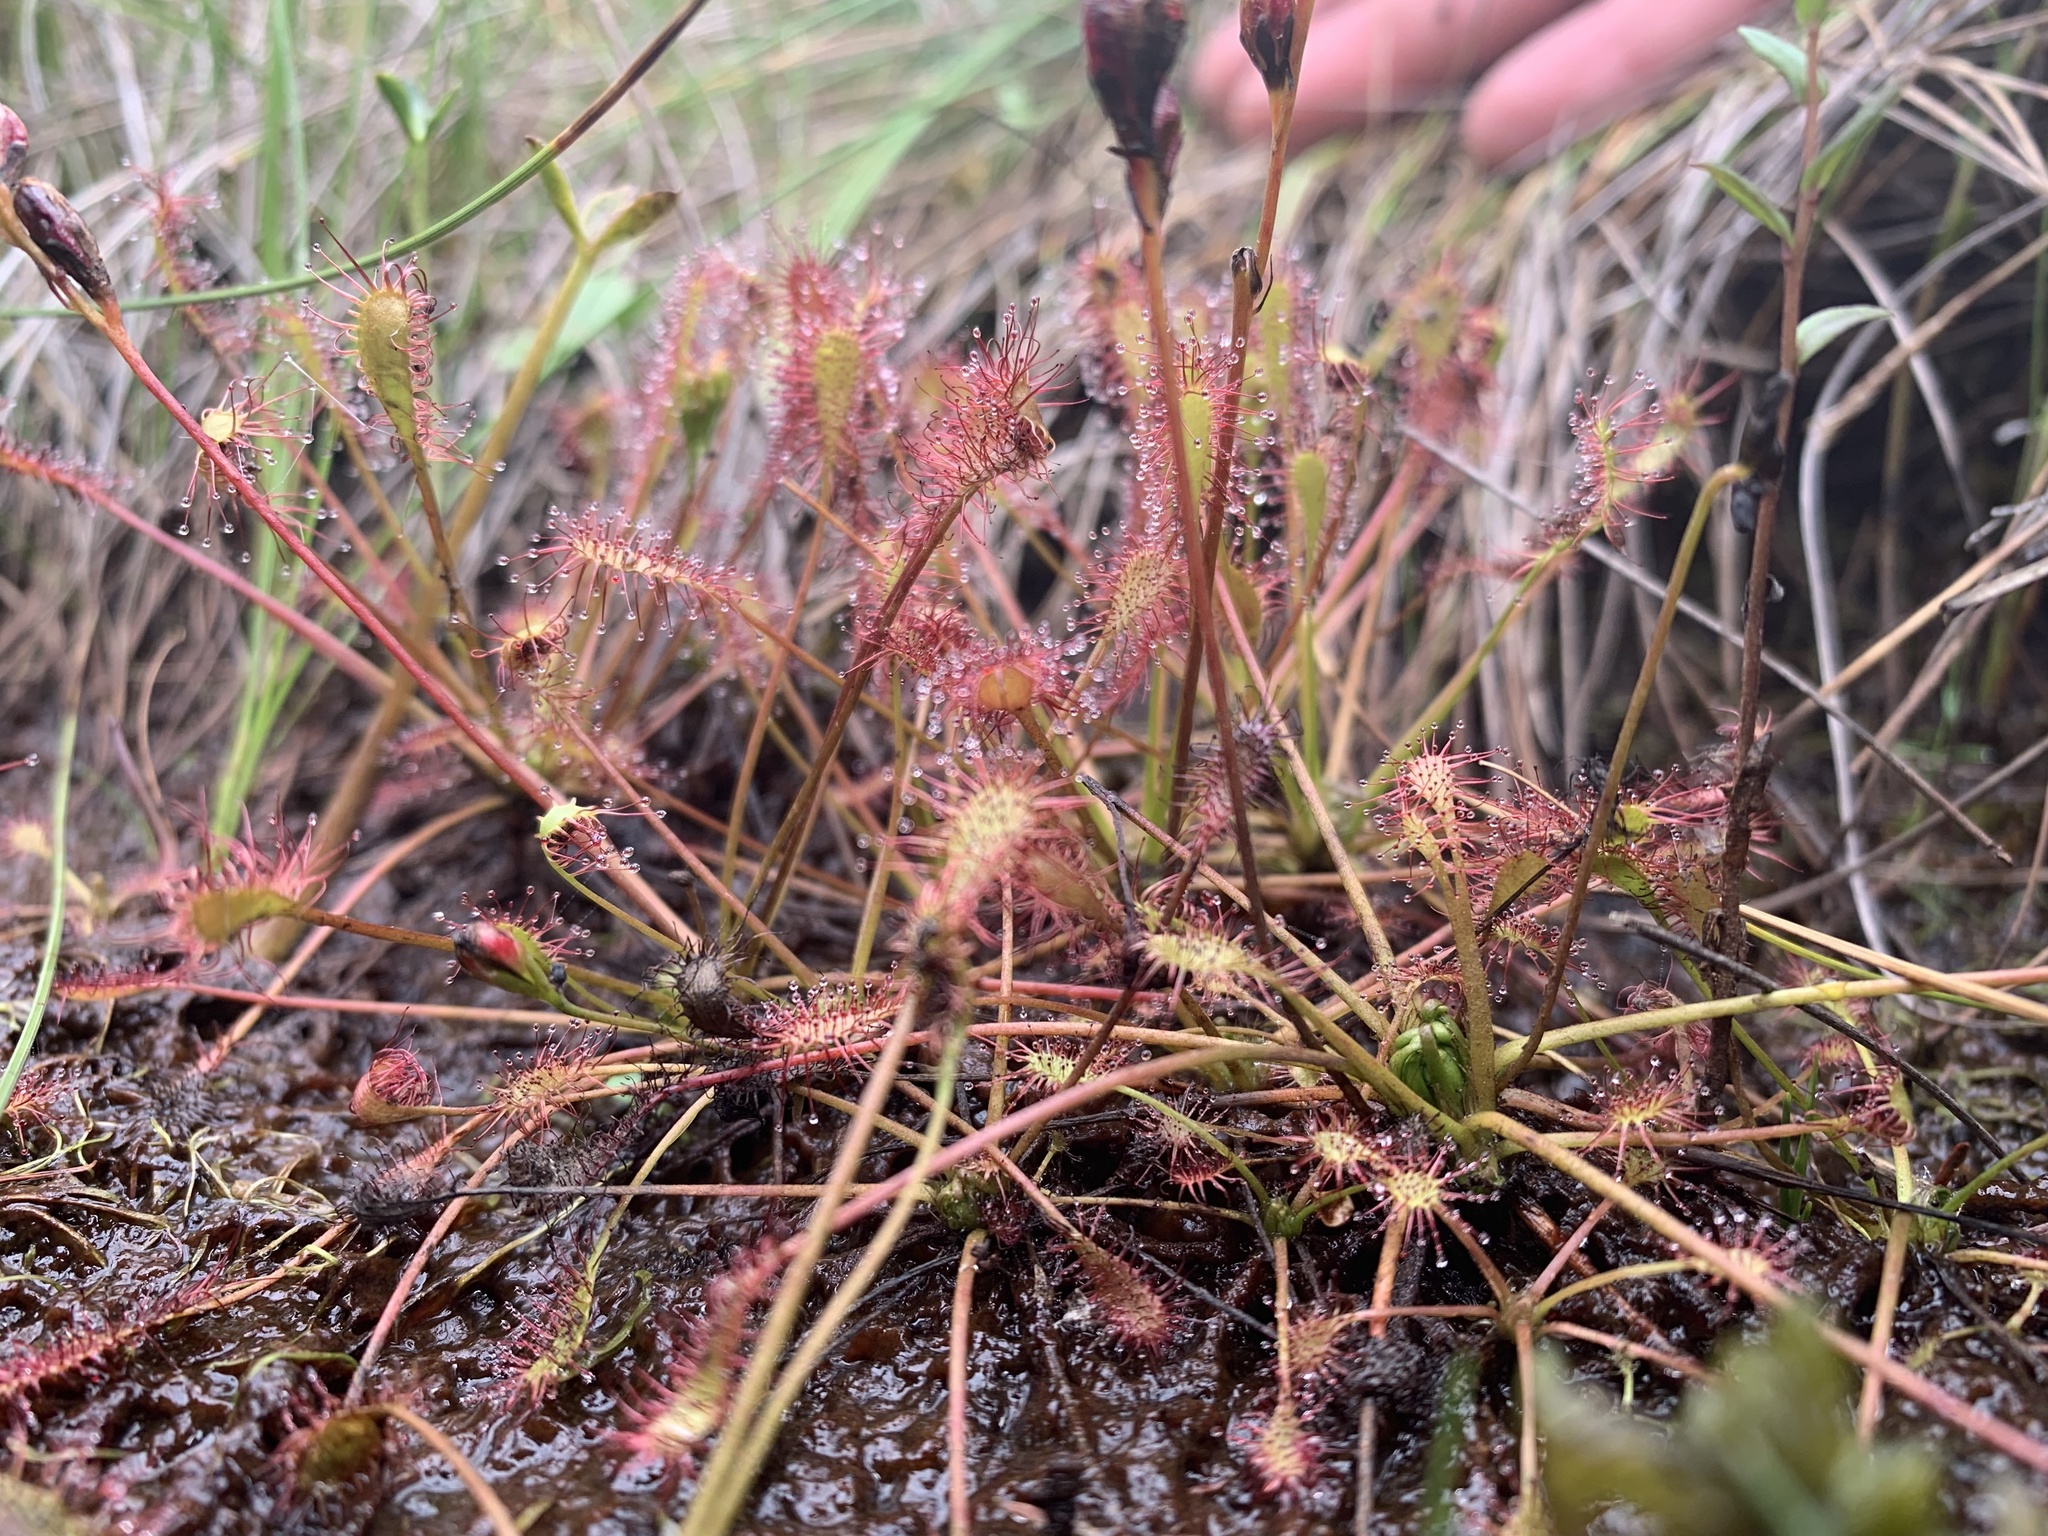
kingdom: Plantae
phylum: Tracheophyta
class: Magnoliopsida
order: Caryophyllales
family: Droseraceae
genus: Drosera
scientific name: Drosera intermedia
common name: Oblong-leaved sundew
